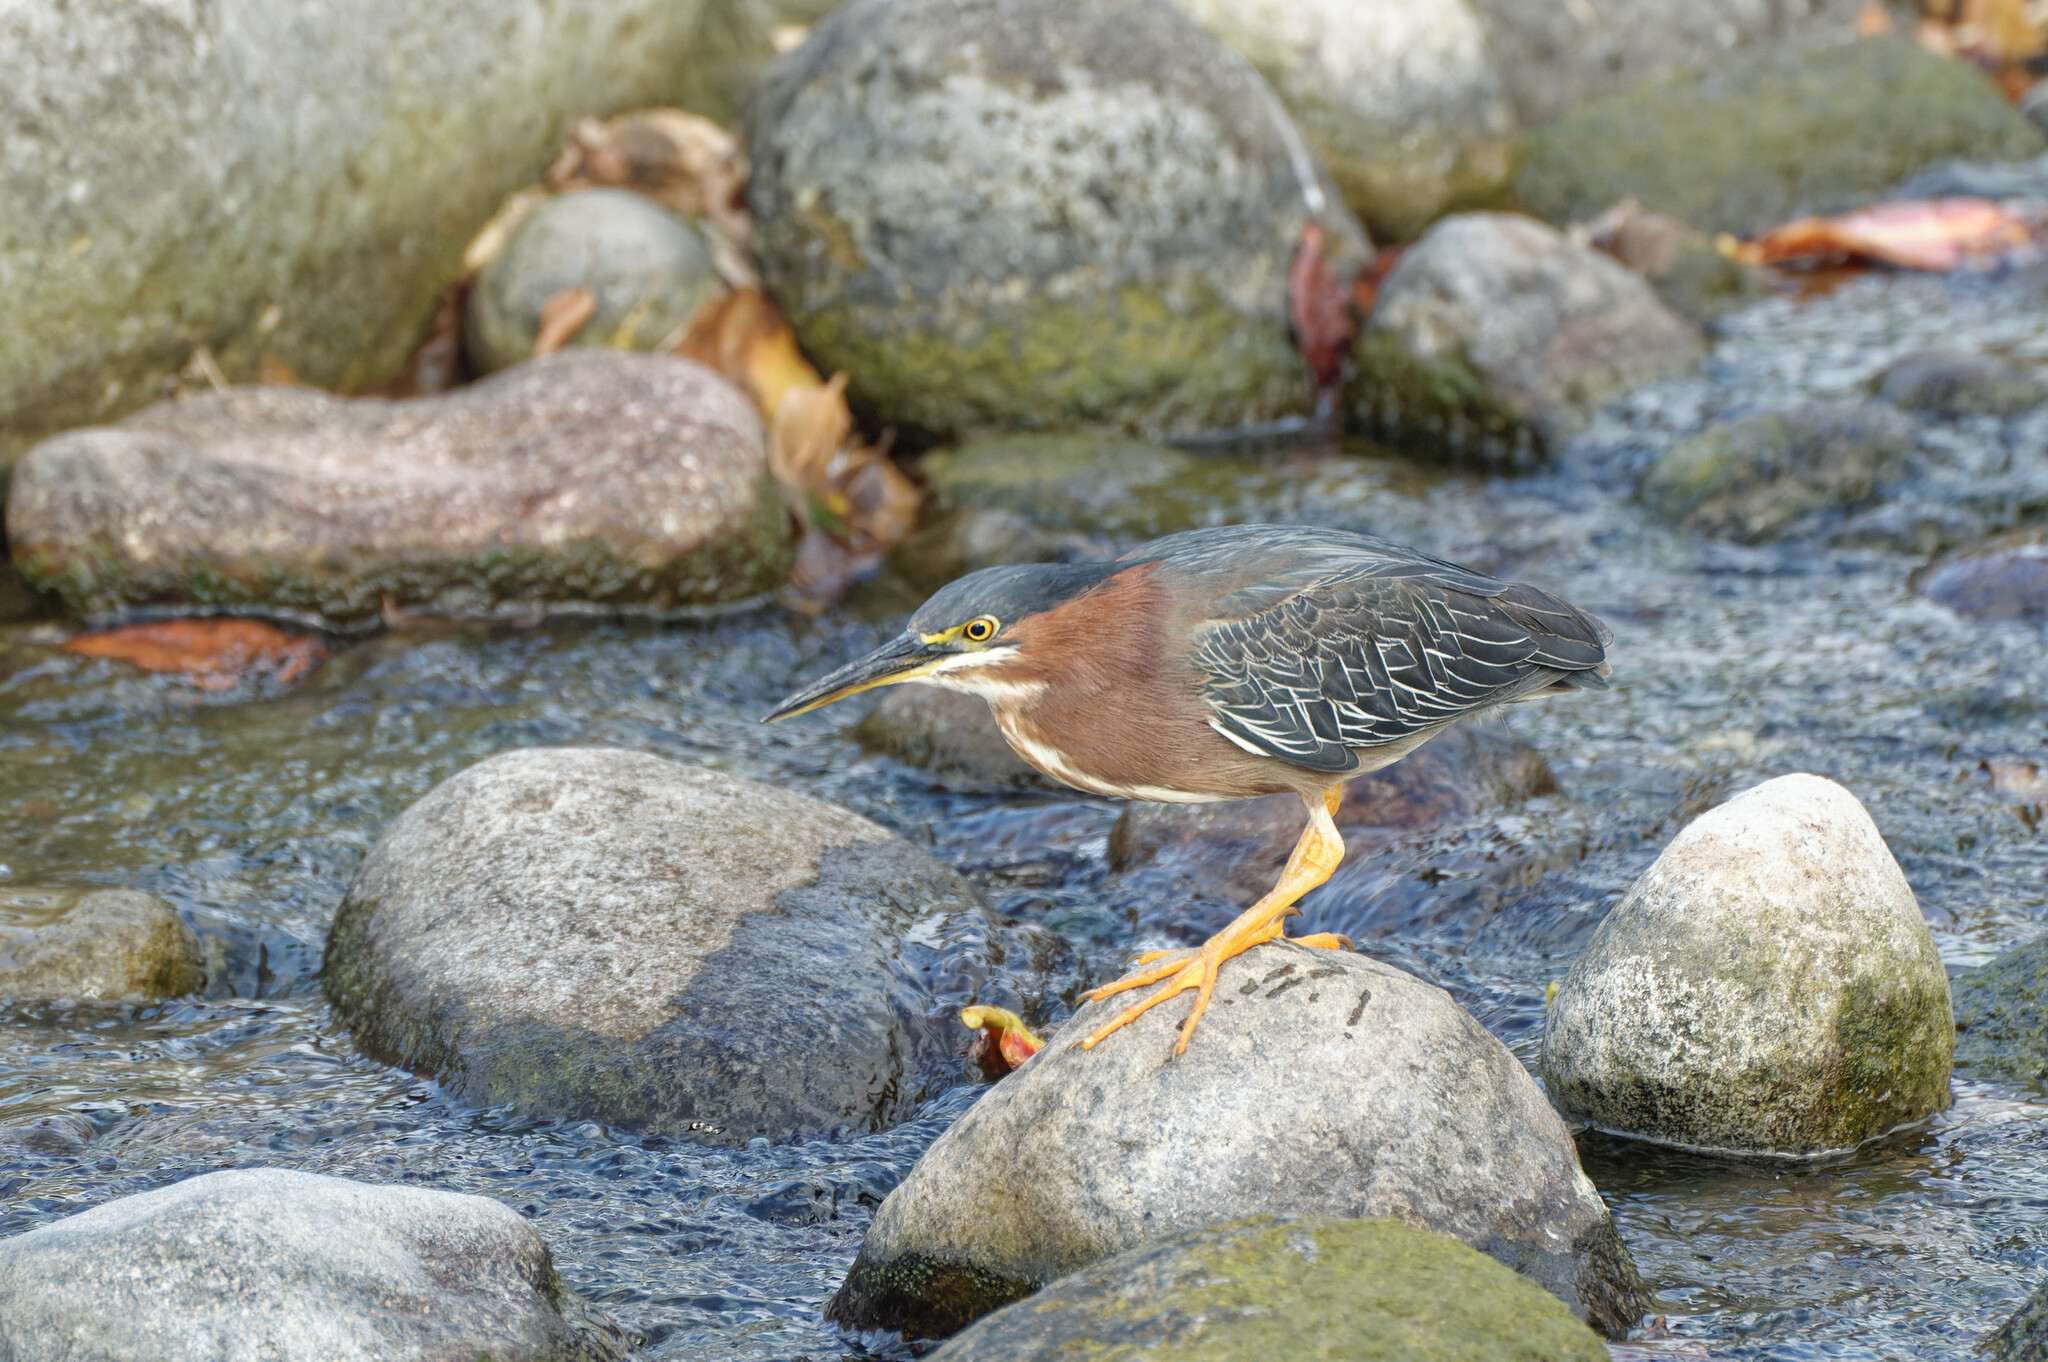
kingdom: Animalia
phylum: Chordata
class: Aves
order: Pelecaniformes
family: Ardeidae
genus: Butorides
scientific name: Butorides virescens
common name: Green heron
